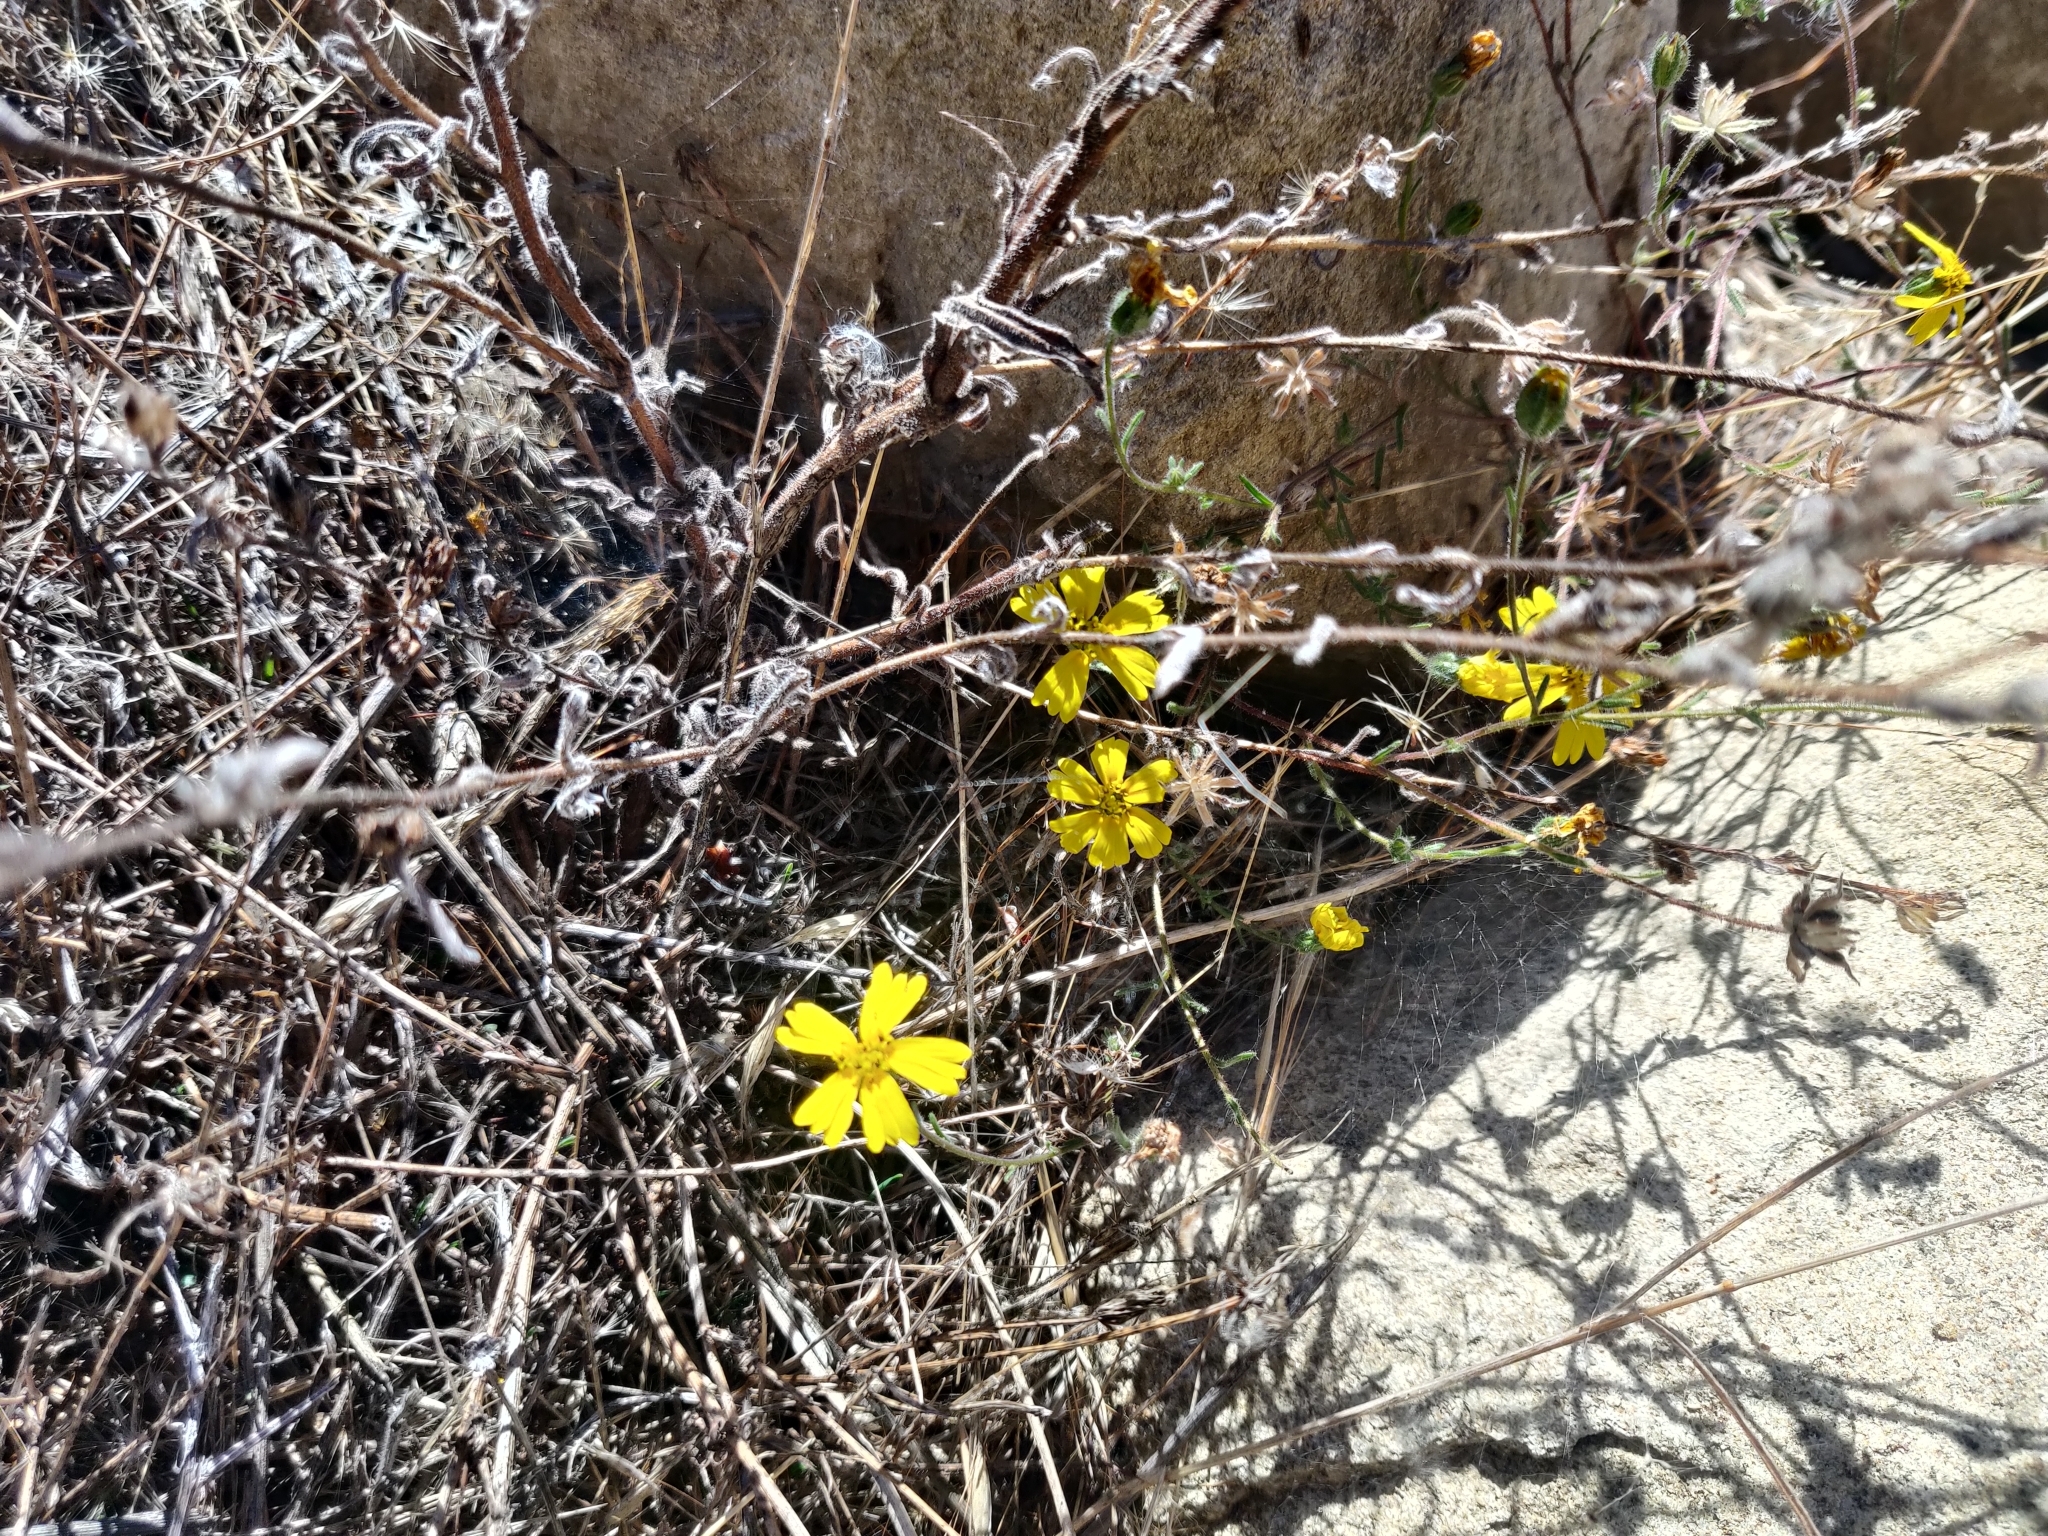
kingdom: Plantae
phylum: Tracheophyta
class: Magnoliopsida
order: Asterales
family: Asteraceae
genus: Madia
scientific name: Madia elegans
